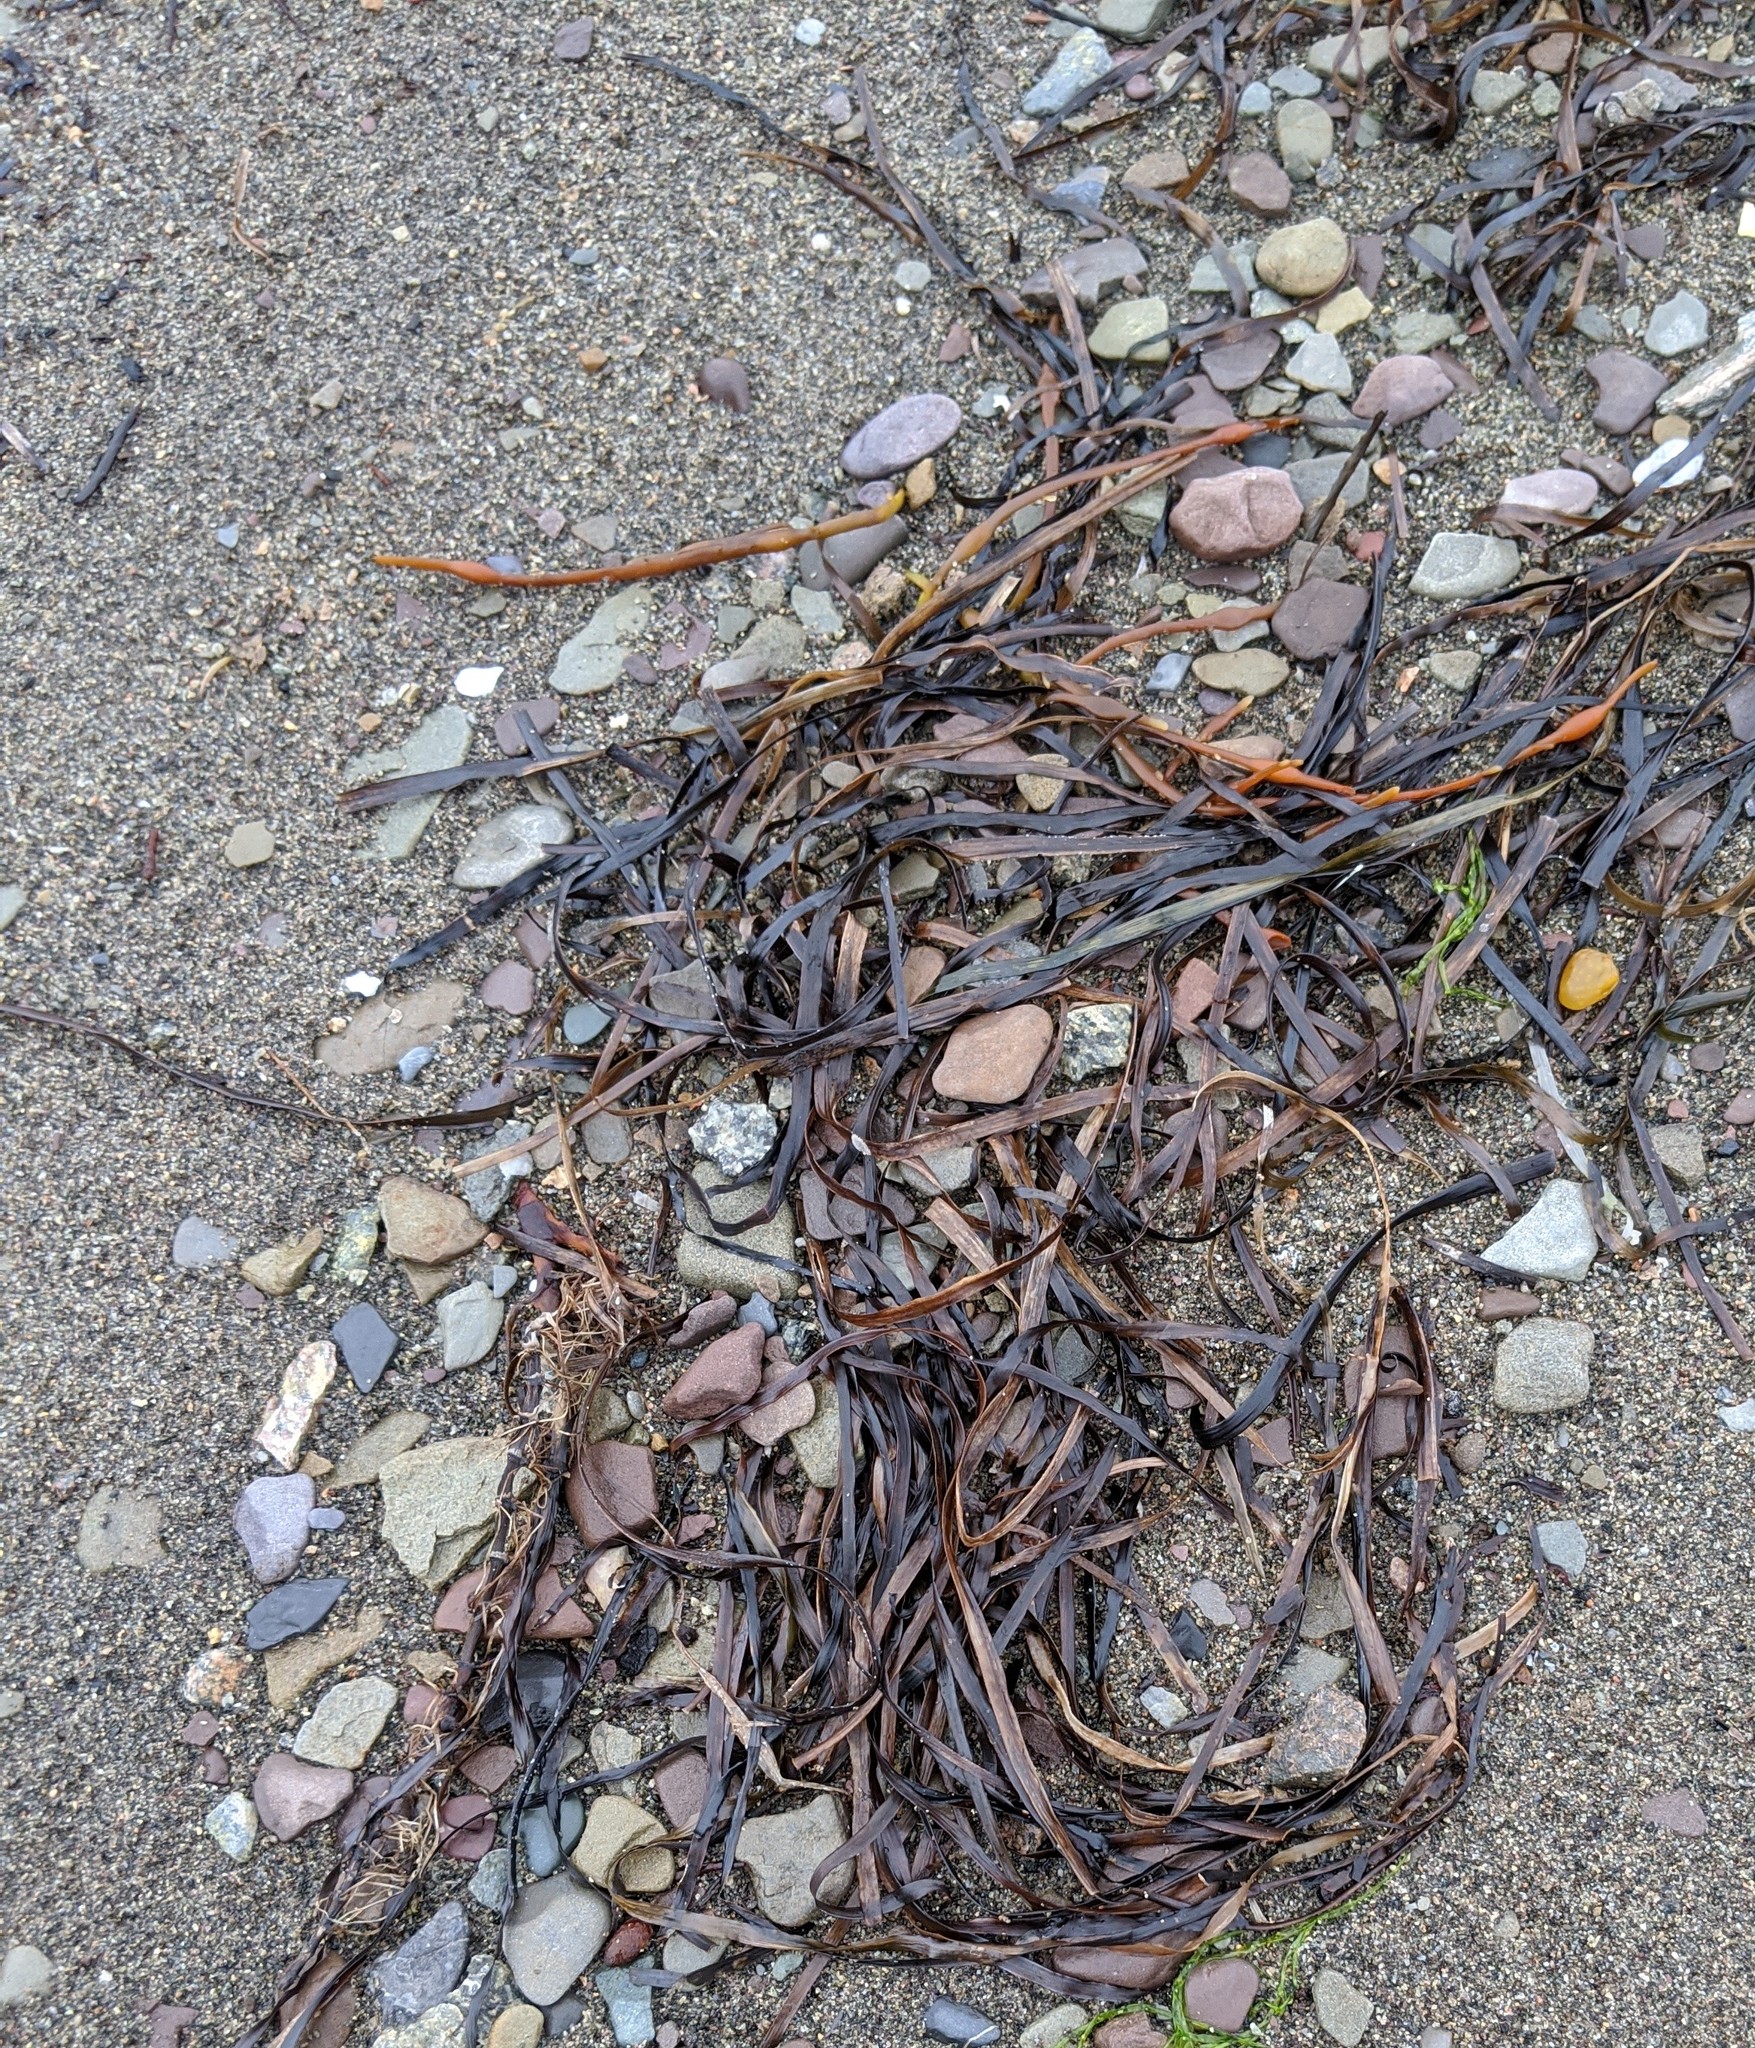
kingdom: Plantae
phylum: Tracheophyta
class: Liliopsida
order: Alismatales
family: Zosteraceae
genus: Zostera
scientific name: Zostera marina
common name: Eelgrass
